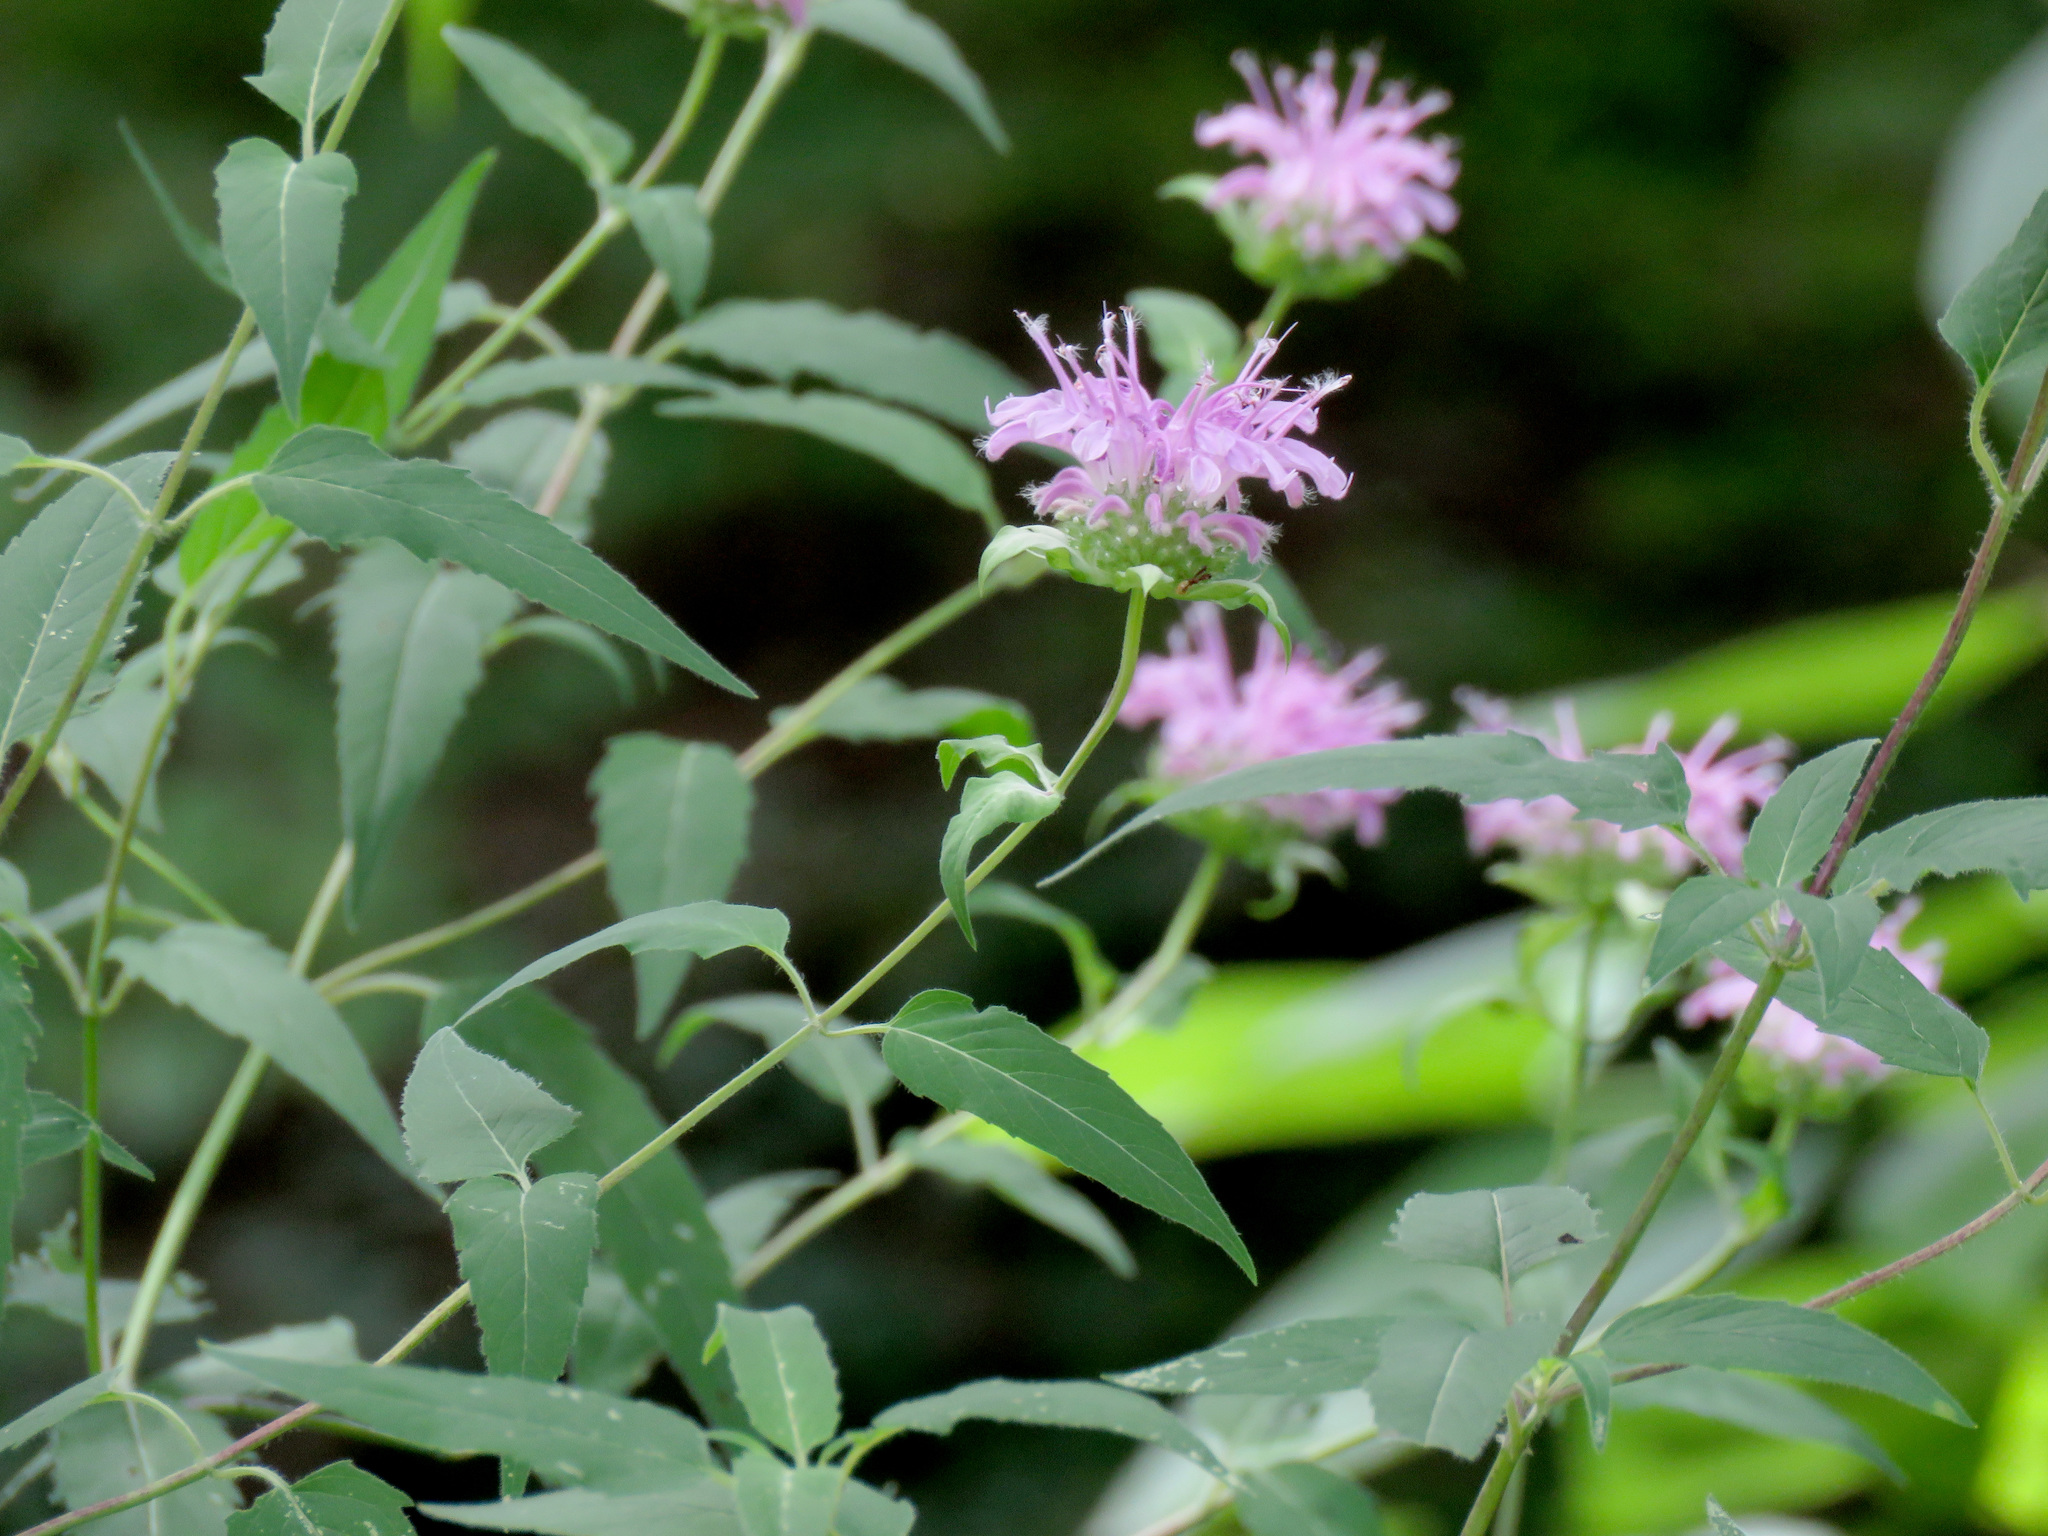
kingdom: Plantae
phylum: Tracheophyta
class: Magnoliopsida
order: Lamiales
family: Lamiaceae
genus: Monarda
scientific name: Monarda fistulosa
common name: Purple beebalm
